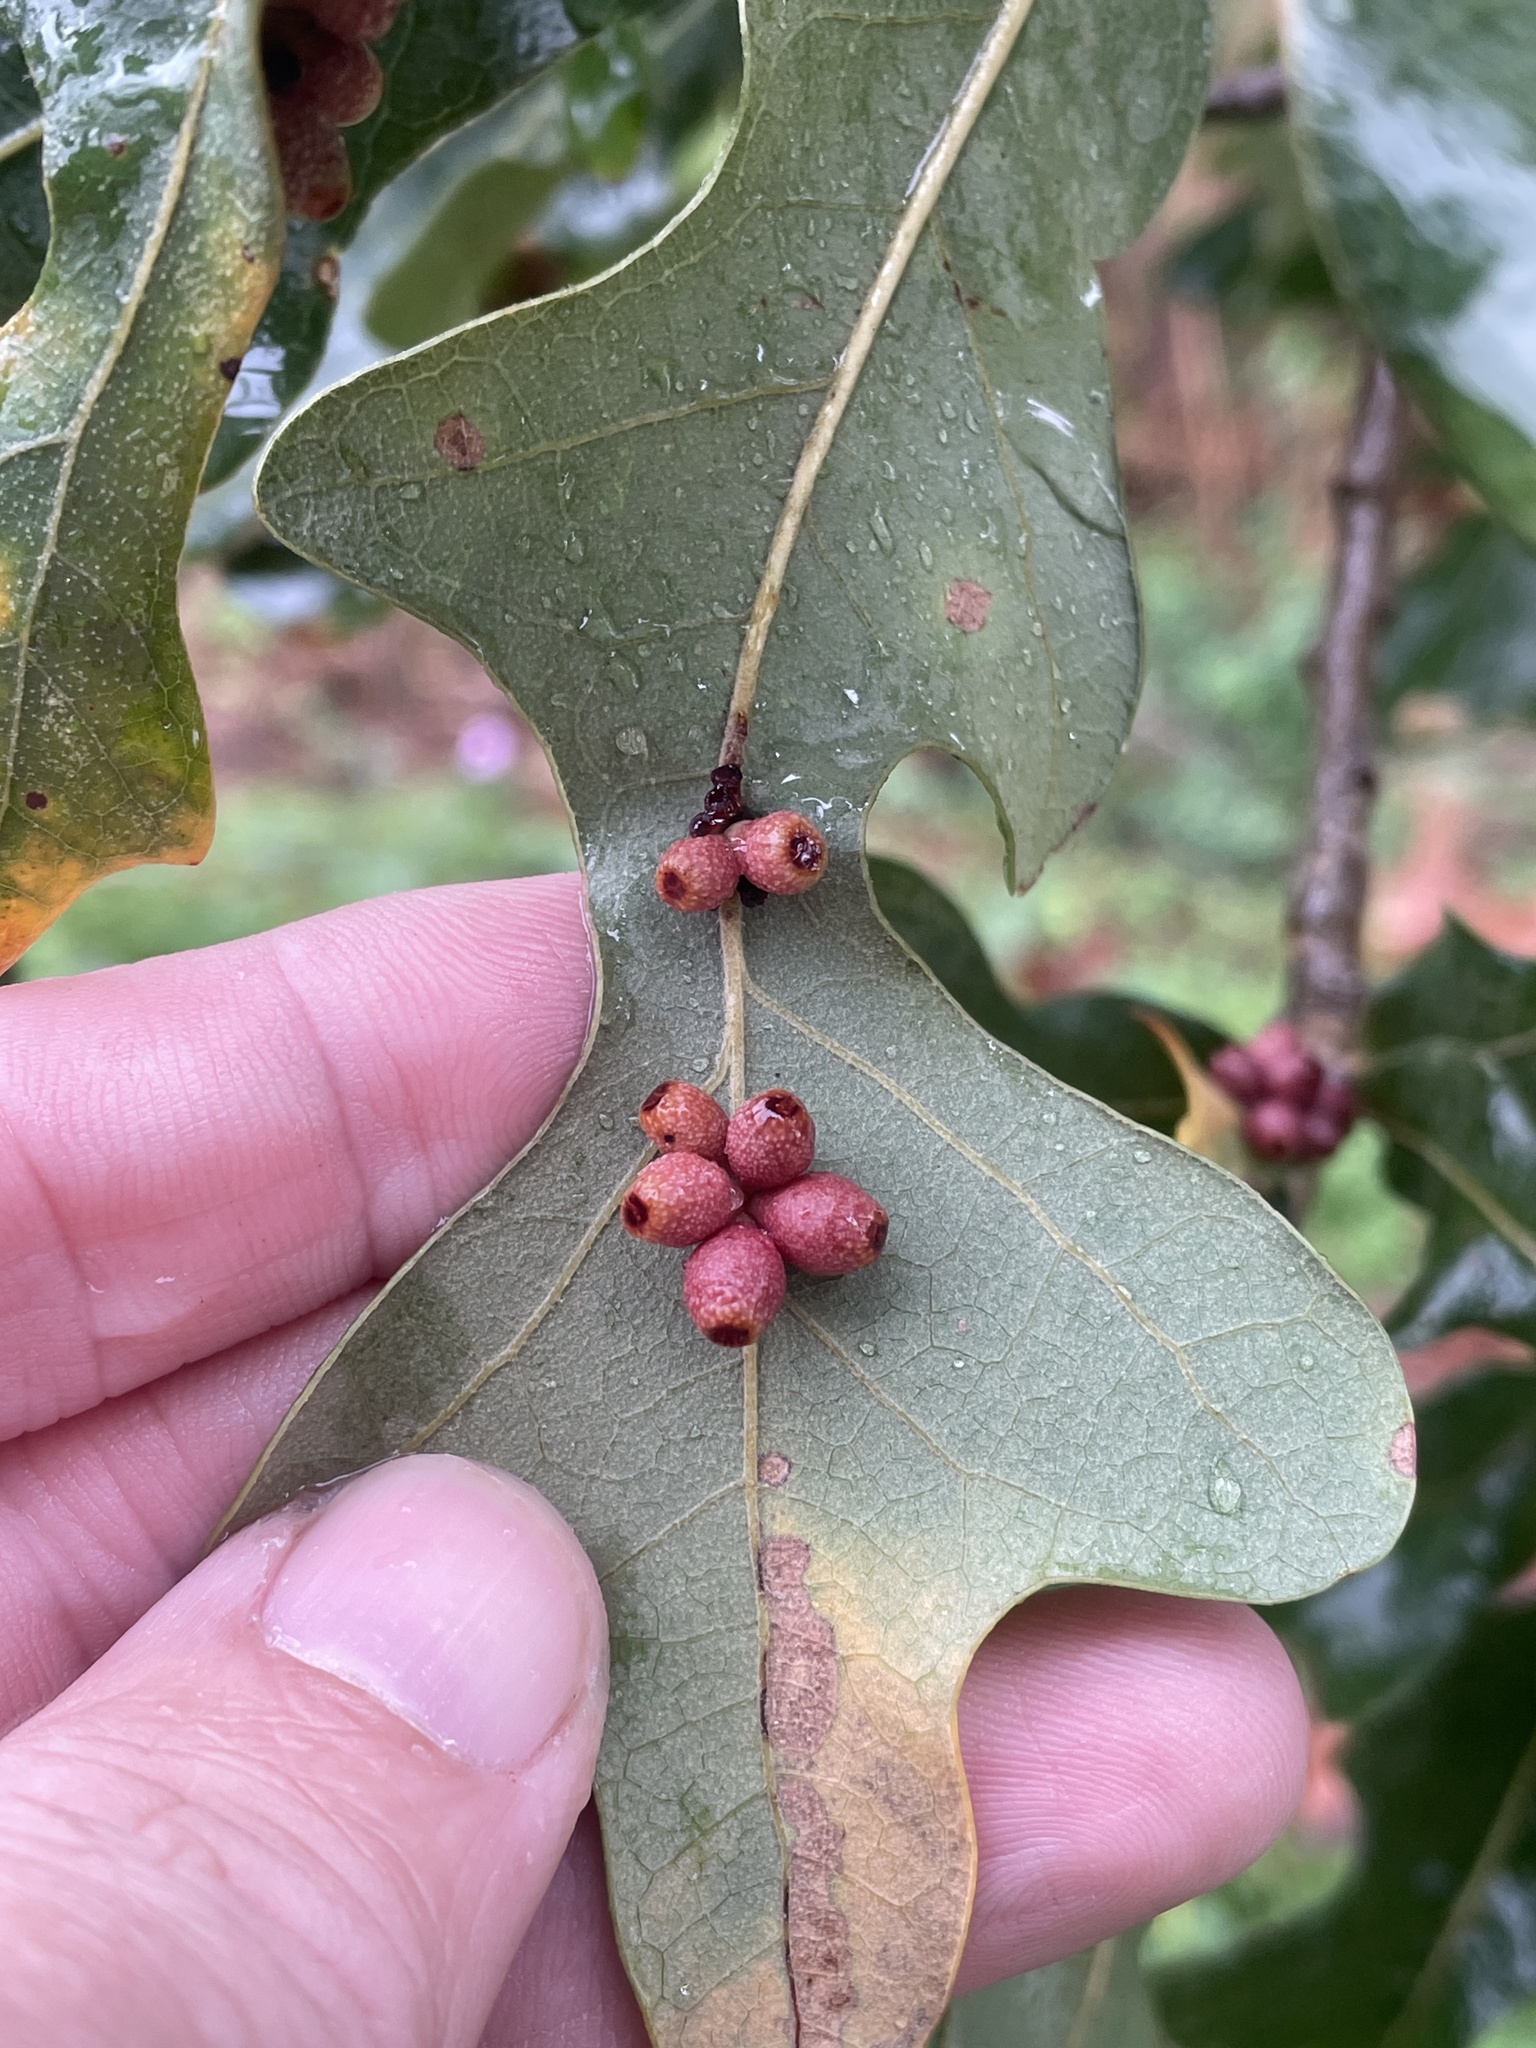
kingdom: Animalia
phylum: Arthropoda
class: Insecta
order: Hymenoptera
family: Cynipidae
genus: Andricus
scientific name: Andricus lustrans
